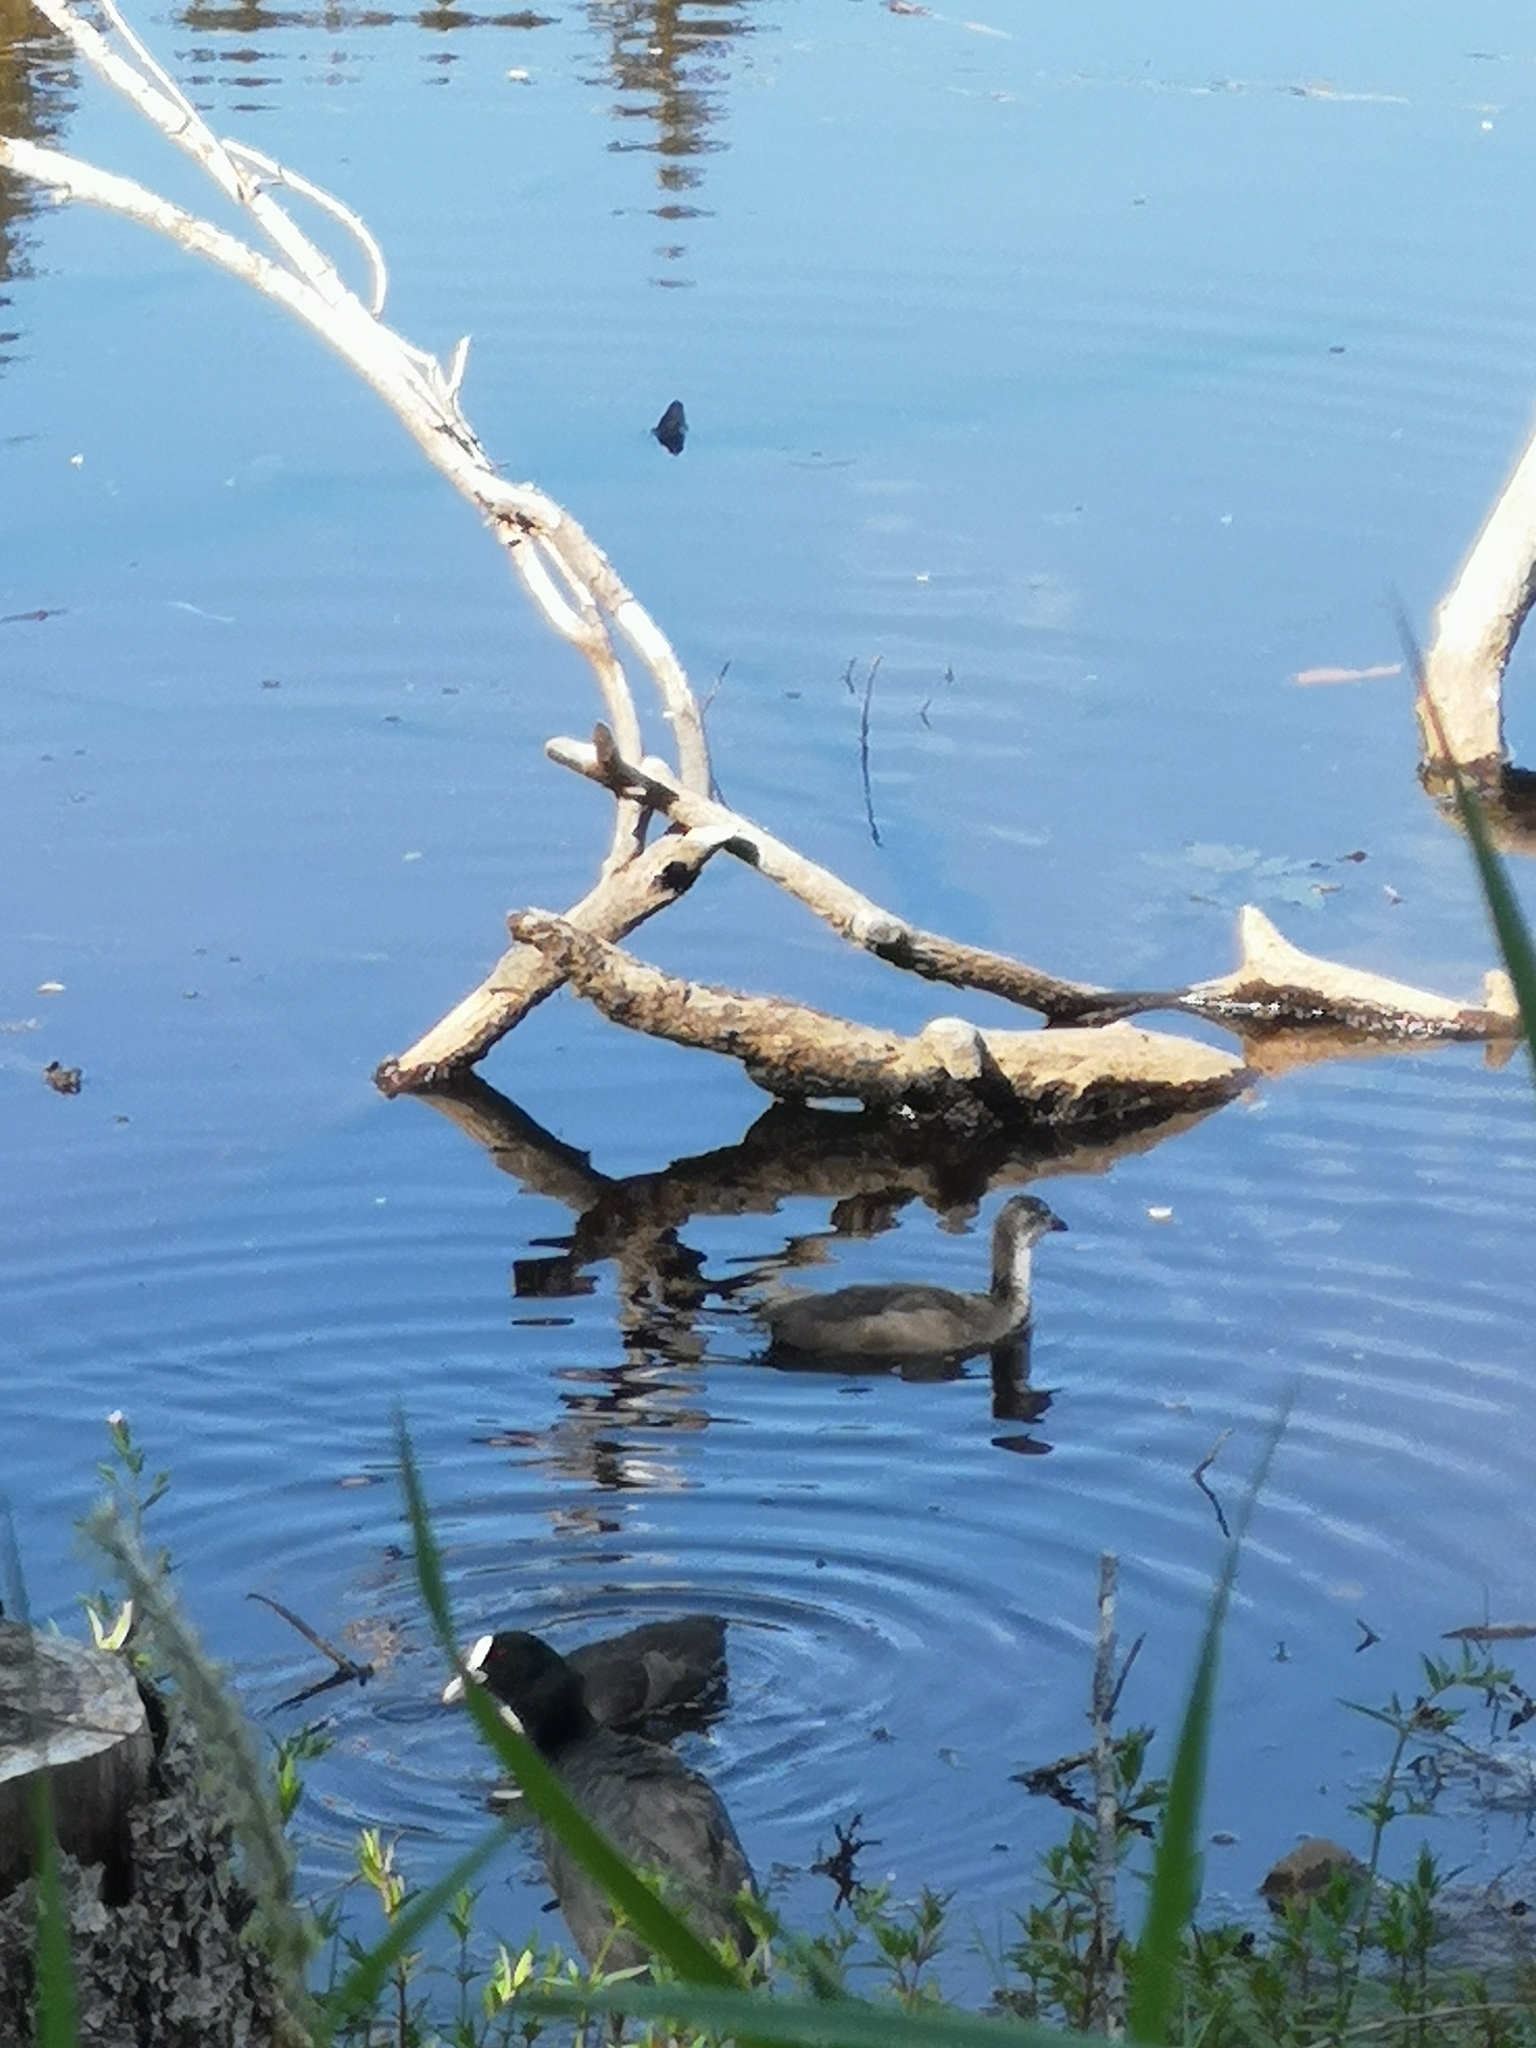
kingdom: Animalia
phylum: Chordata
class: Aves
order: Gruiformes
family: Rallidae
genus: Fulica
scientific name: Fulica atra
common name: Eurasian coot
